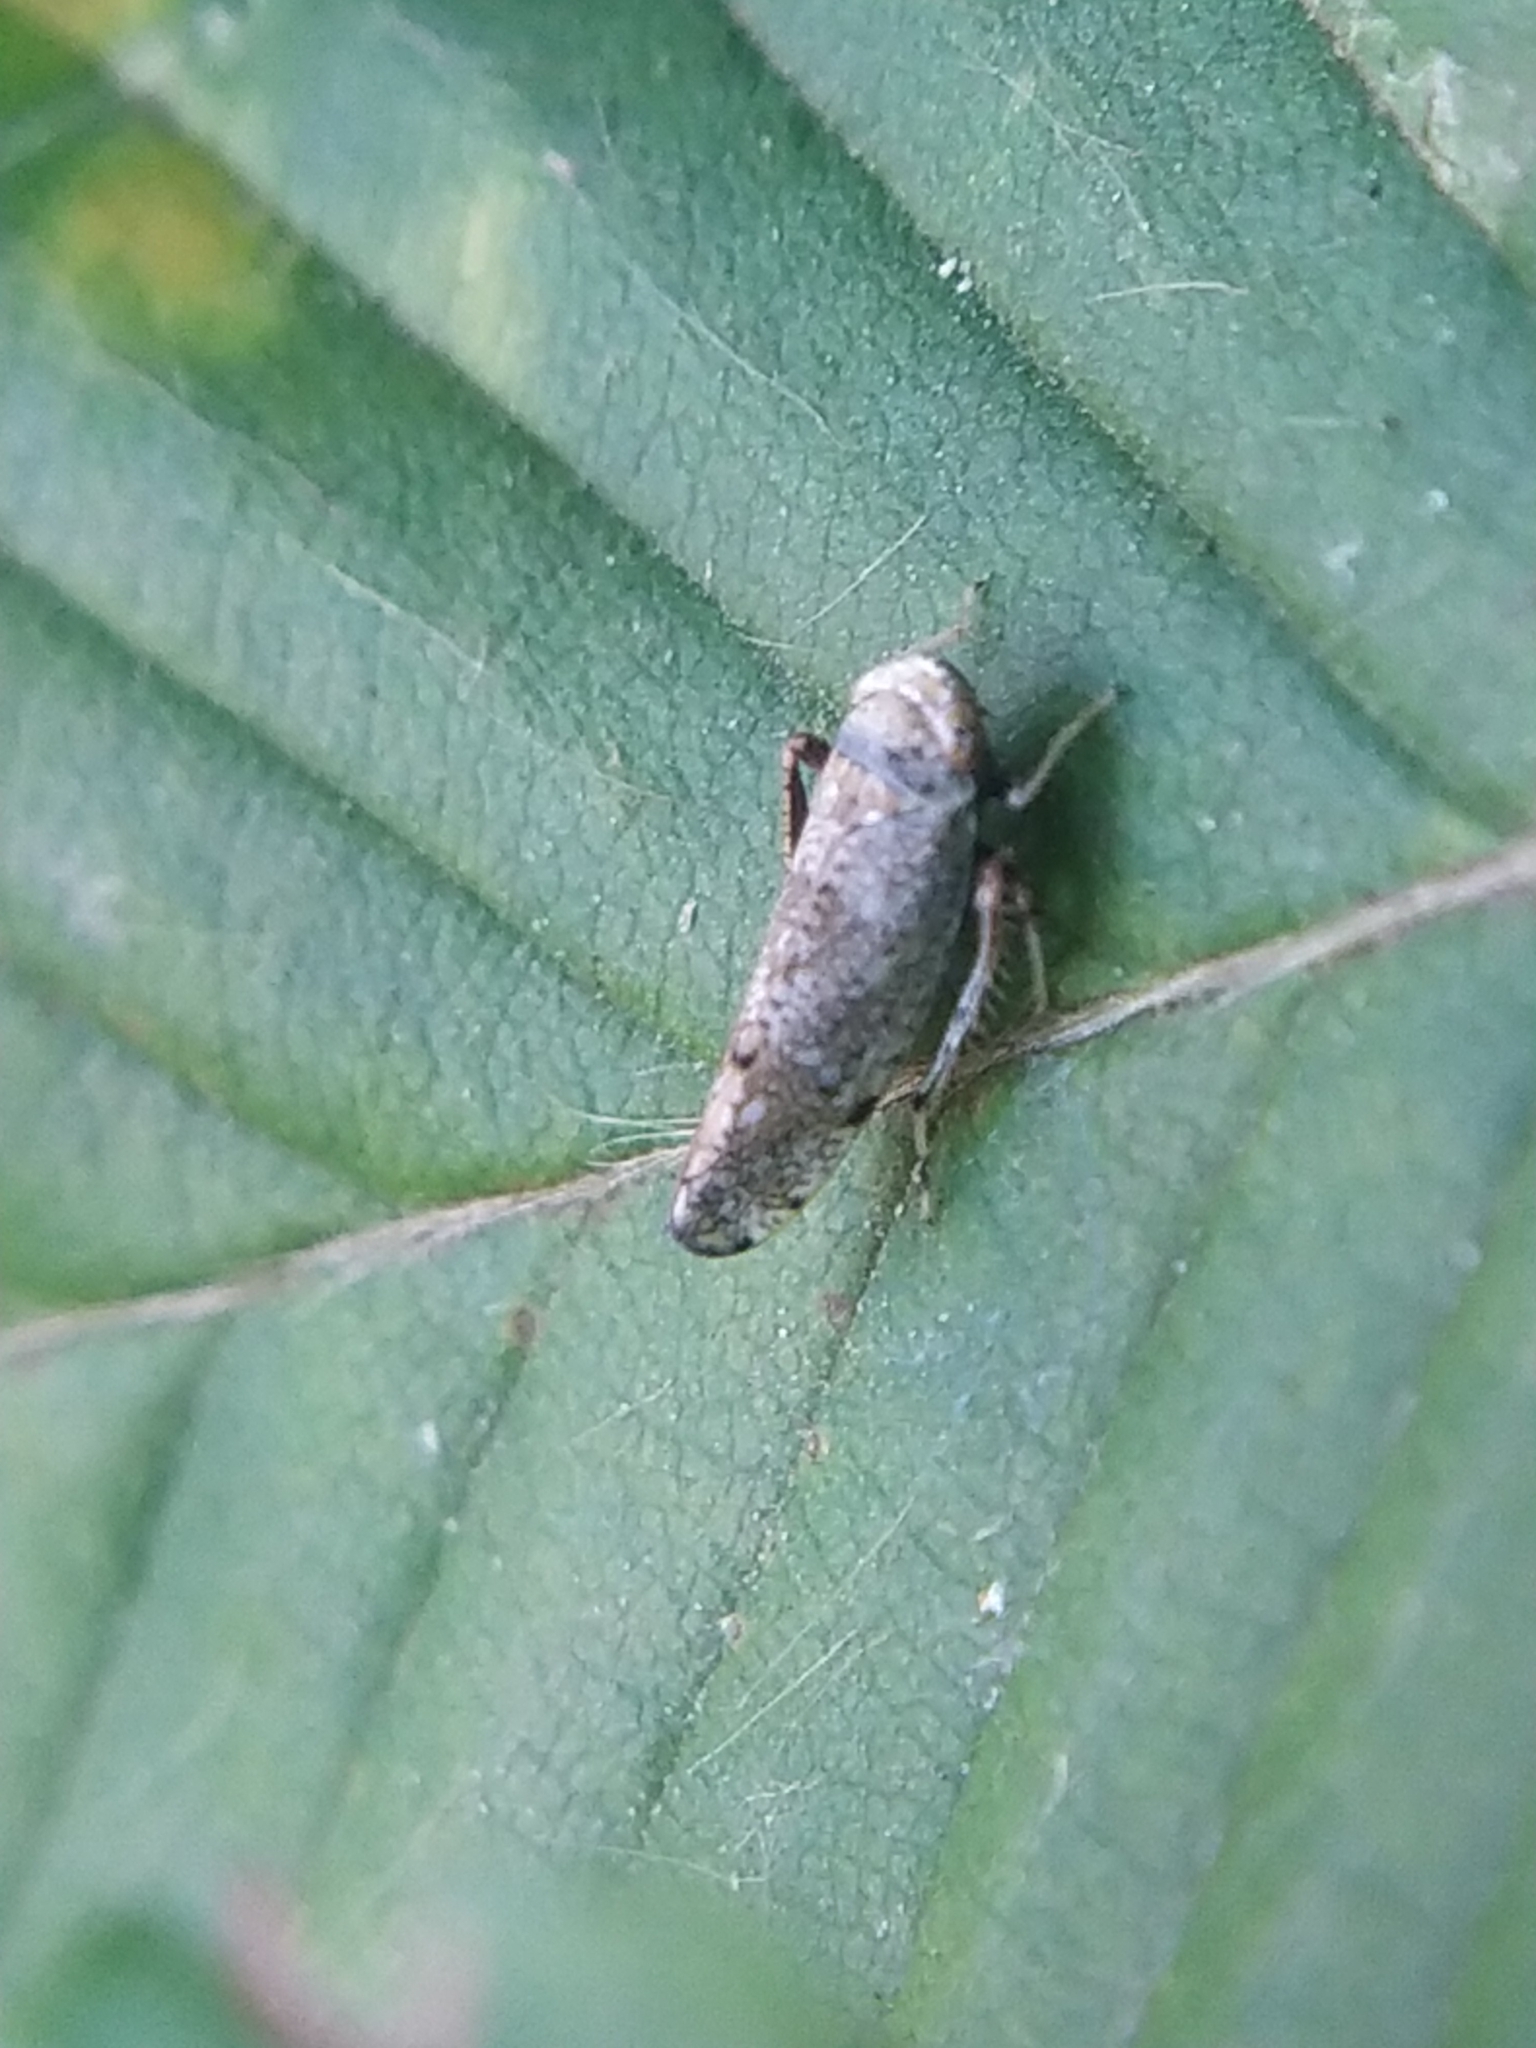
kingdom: Animalia
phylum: Arthropoda
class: Insecta
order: Hemiptera
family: Cicadellidae
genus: Orientus
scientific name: Orientus ishidae
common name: Japanese leafhopper
